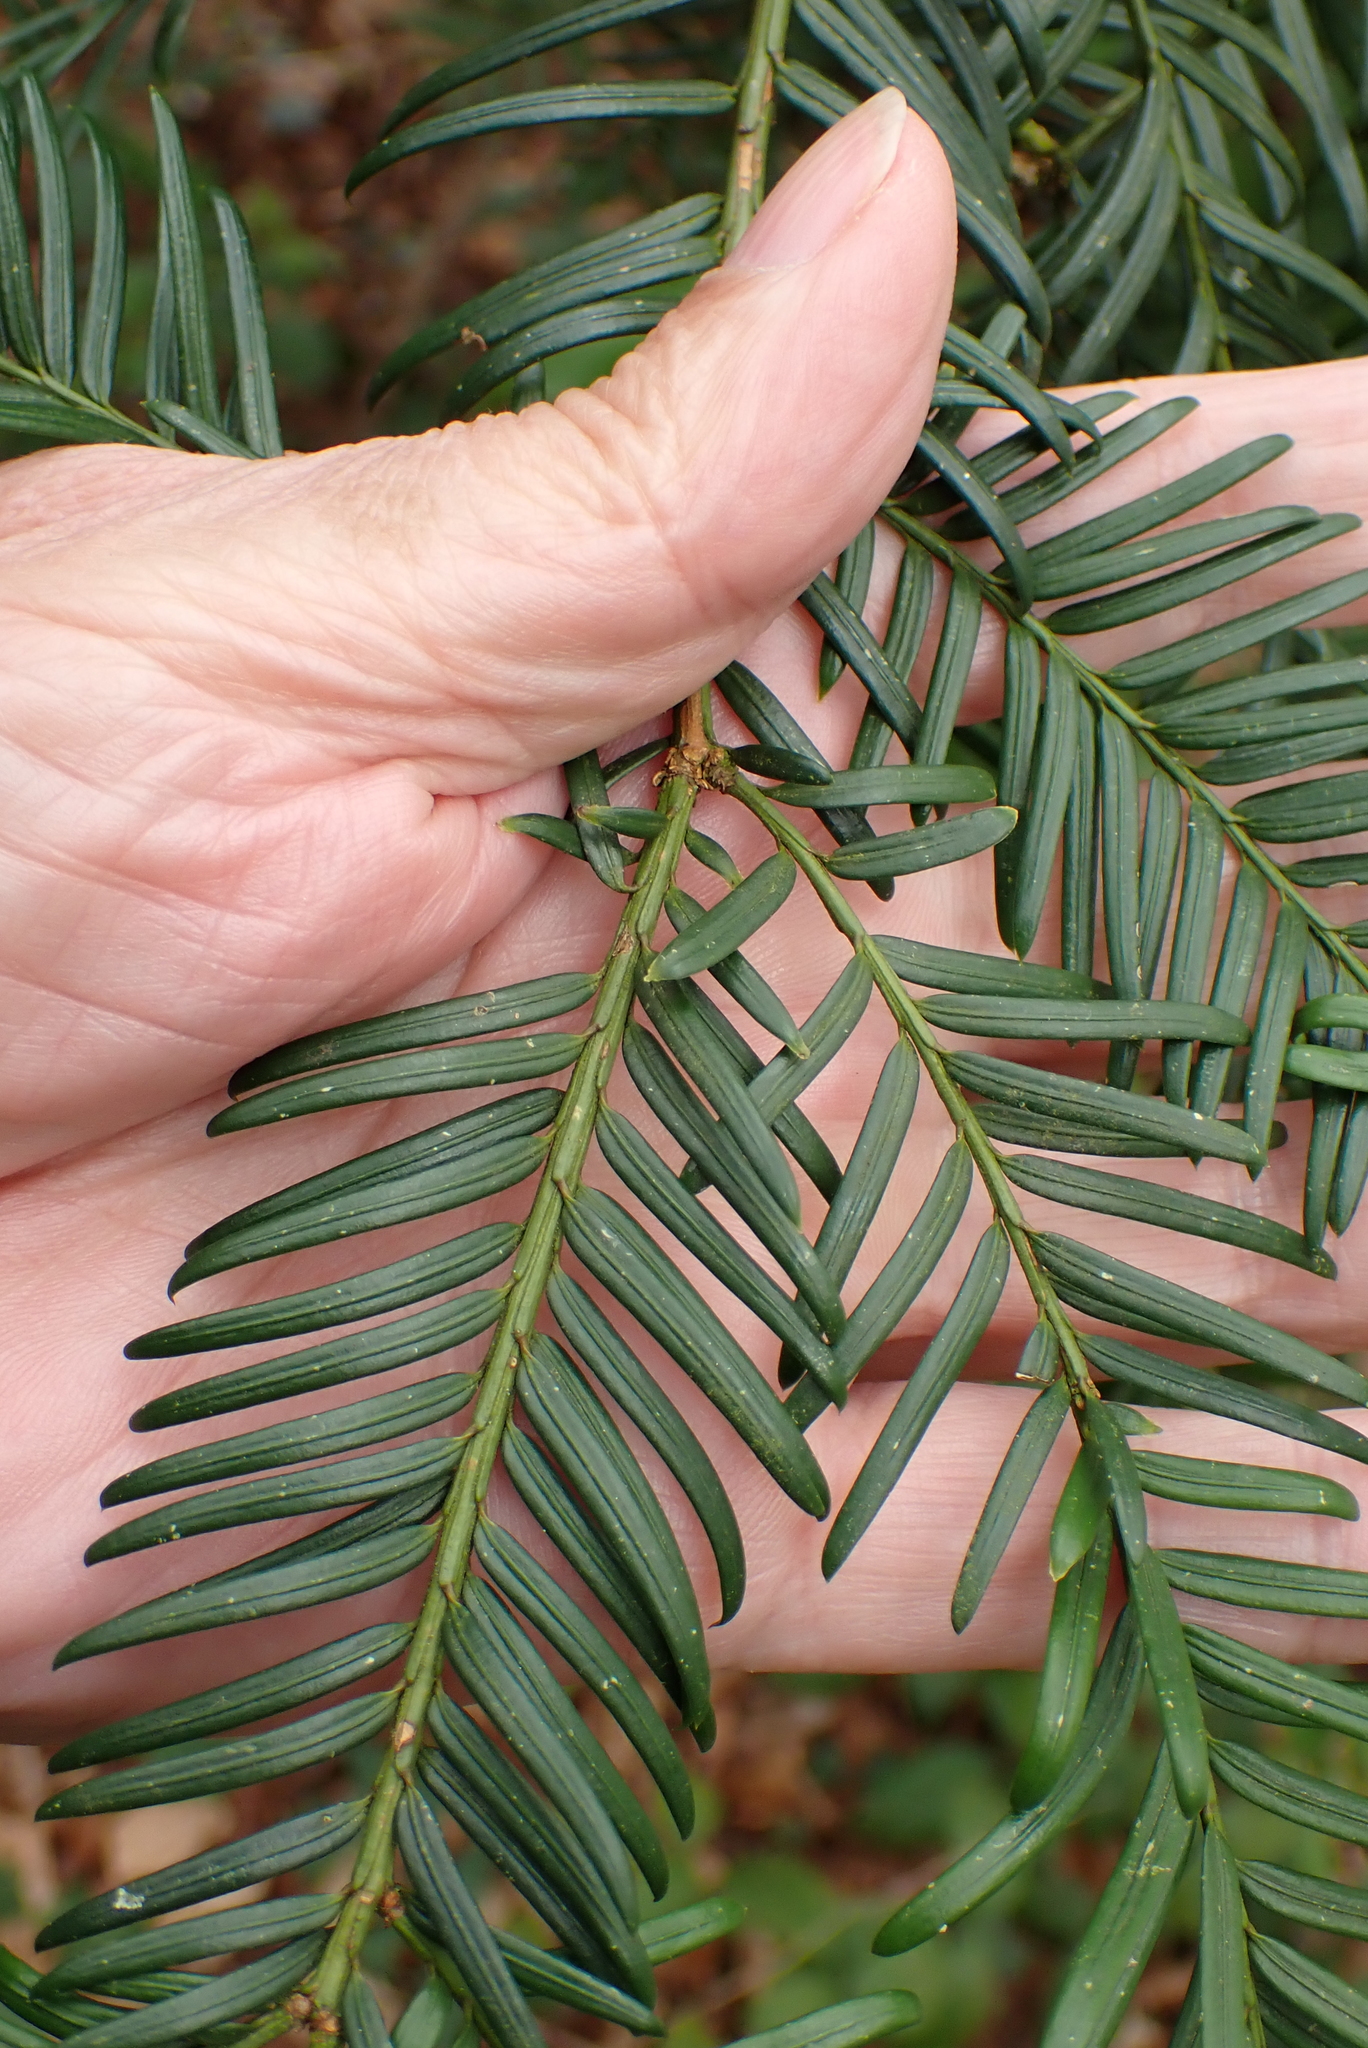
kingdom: Plantae
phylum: Tracheophyta
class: Pinopsida
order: Pinales
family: Taxaceae
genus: Taxus
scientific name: Taxus baccata
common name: Yew
